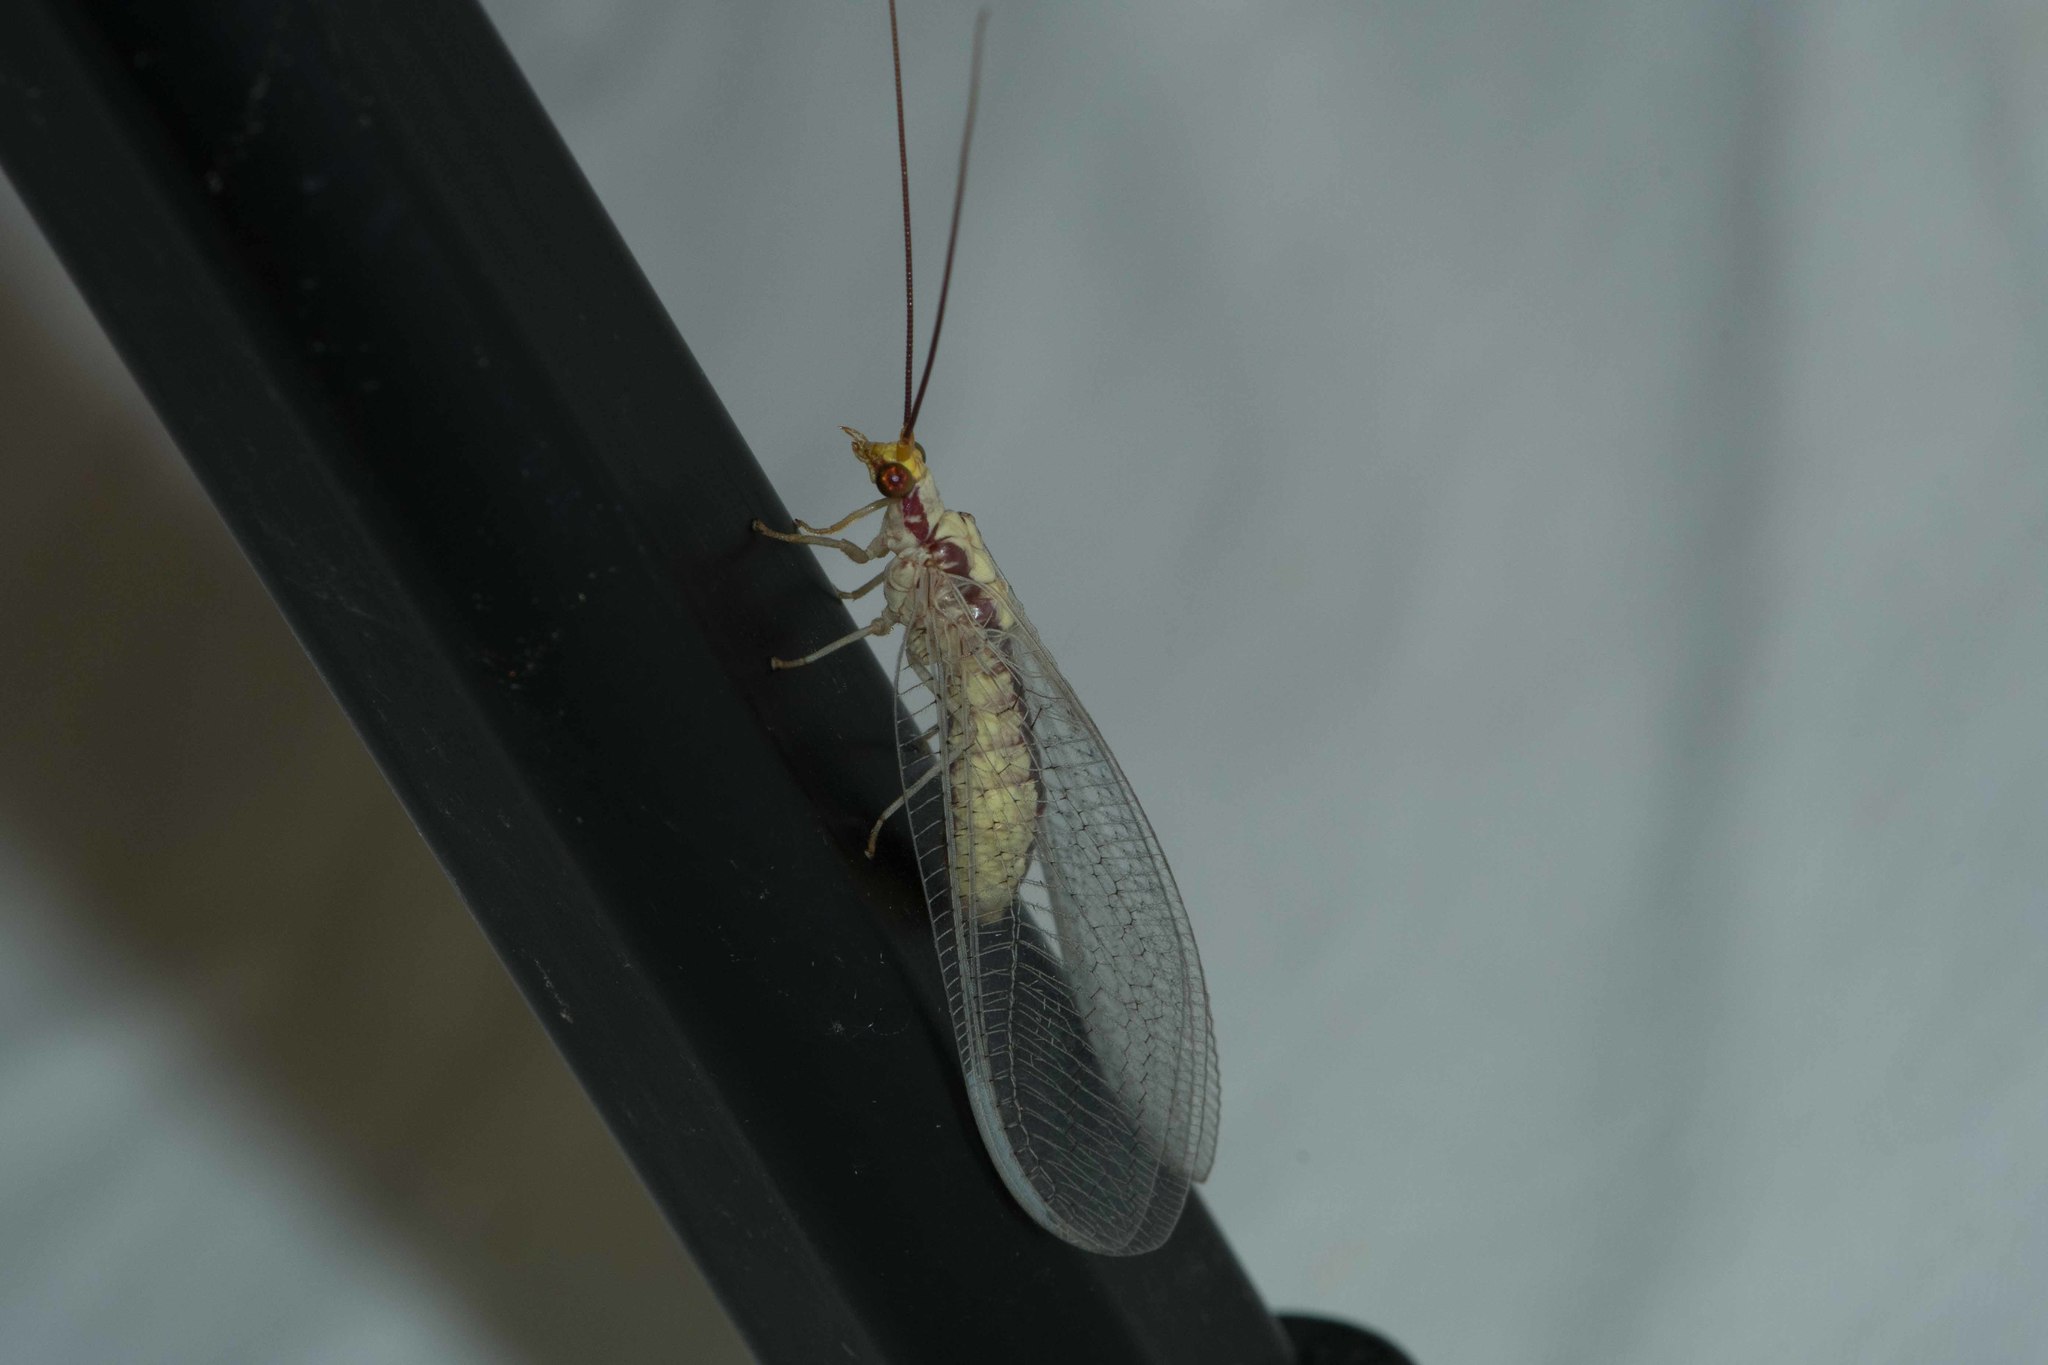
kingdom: Animalia
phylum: Arthropoda
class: Insecta
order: Neuroptera
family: Chrysopidae
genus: Italochrysa
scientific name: Italochrysa italica
